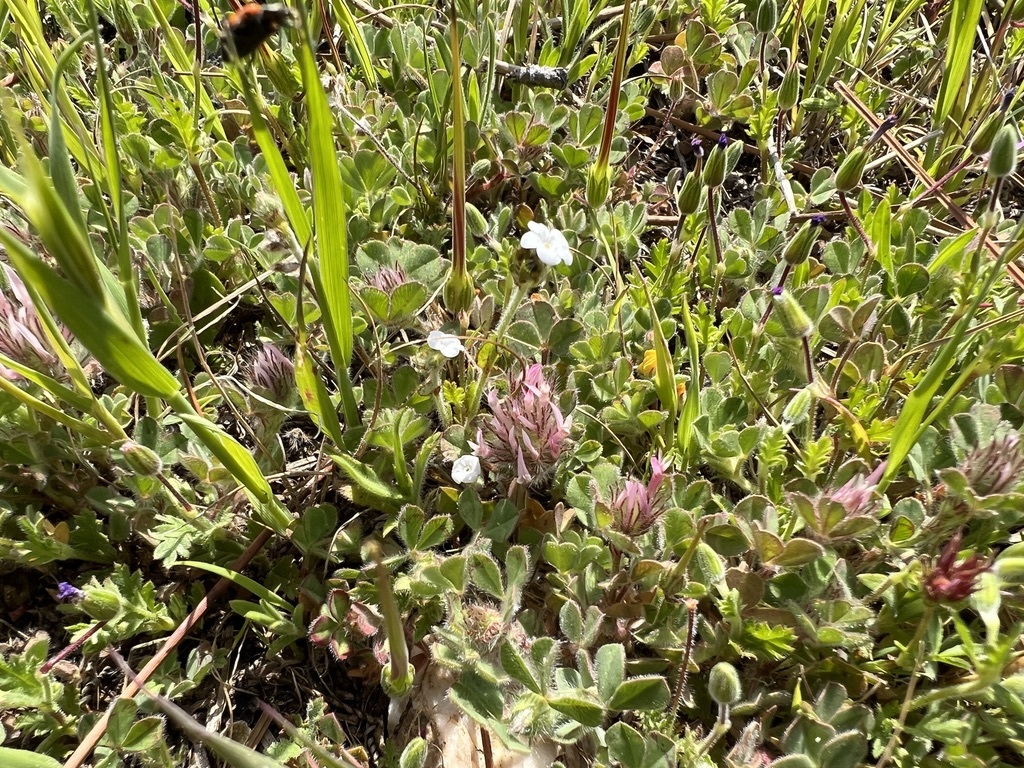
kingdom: Plantae
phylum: Tracheophyta
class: Magnoliopsida
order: Fabales
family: Fabaceae
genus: Trifolium
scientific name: Trifolium hirtum
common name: Rose clover
